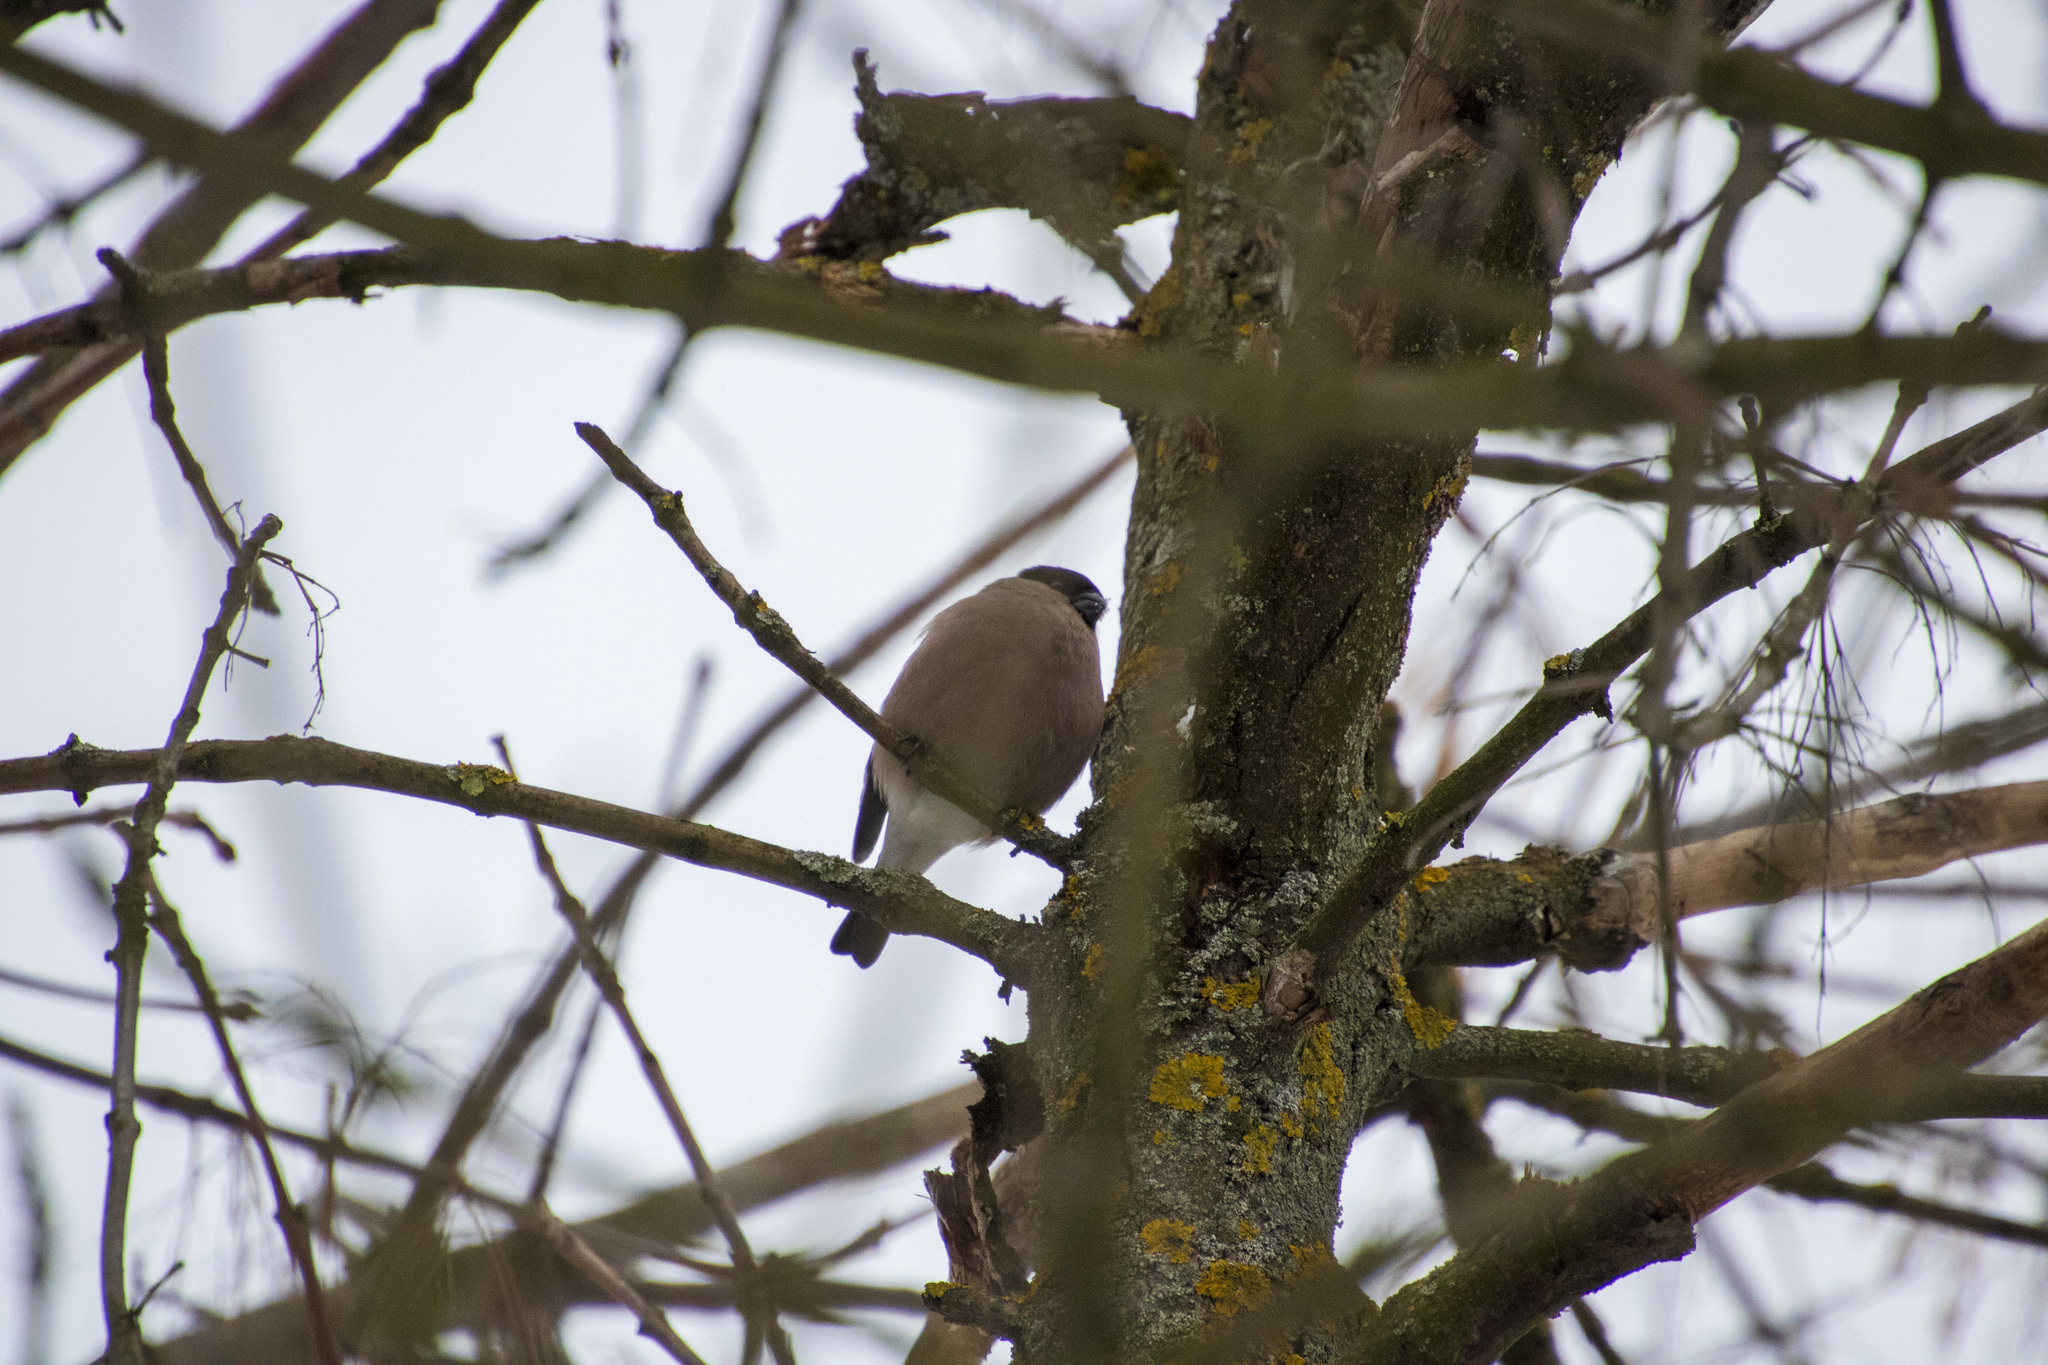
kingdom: Animalia
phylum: Chordata
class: Aves
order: Passeriformes
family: Fringillidae
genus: Pyrrhula
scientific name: Pyrrhula pyrrhula
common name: Eurasian bullfinch
